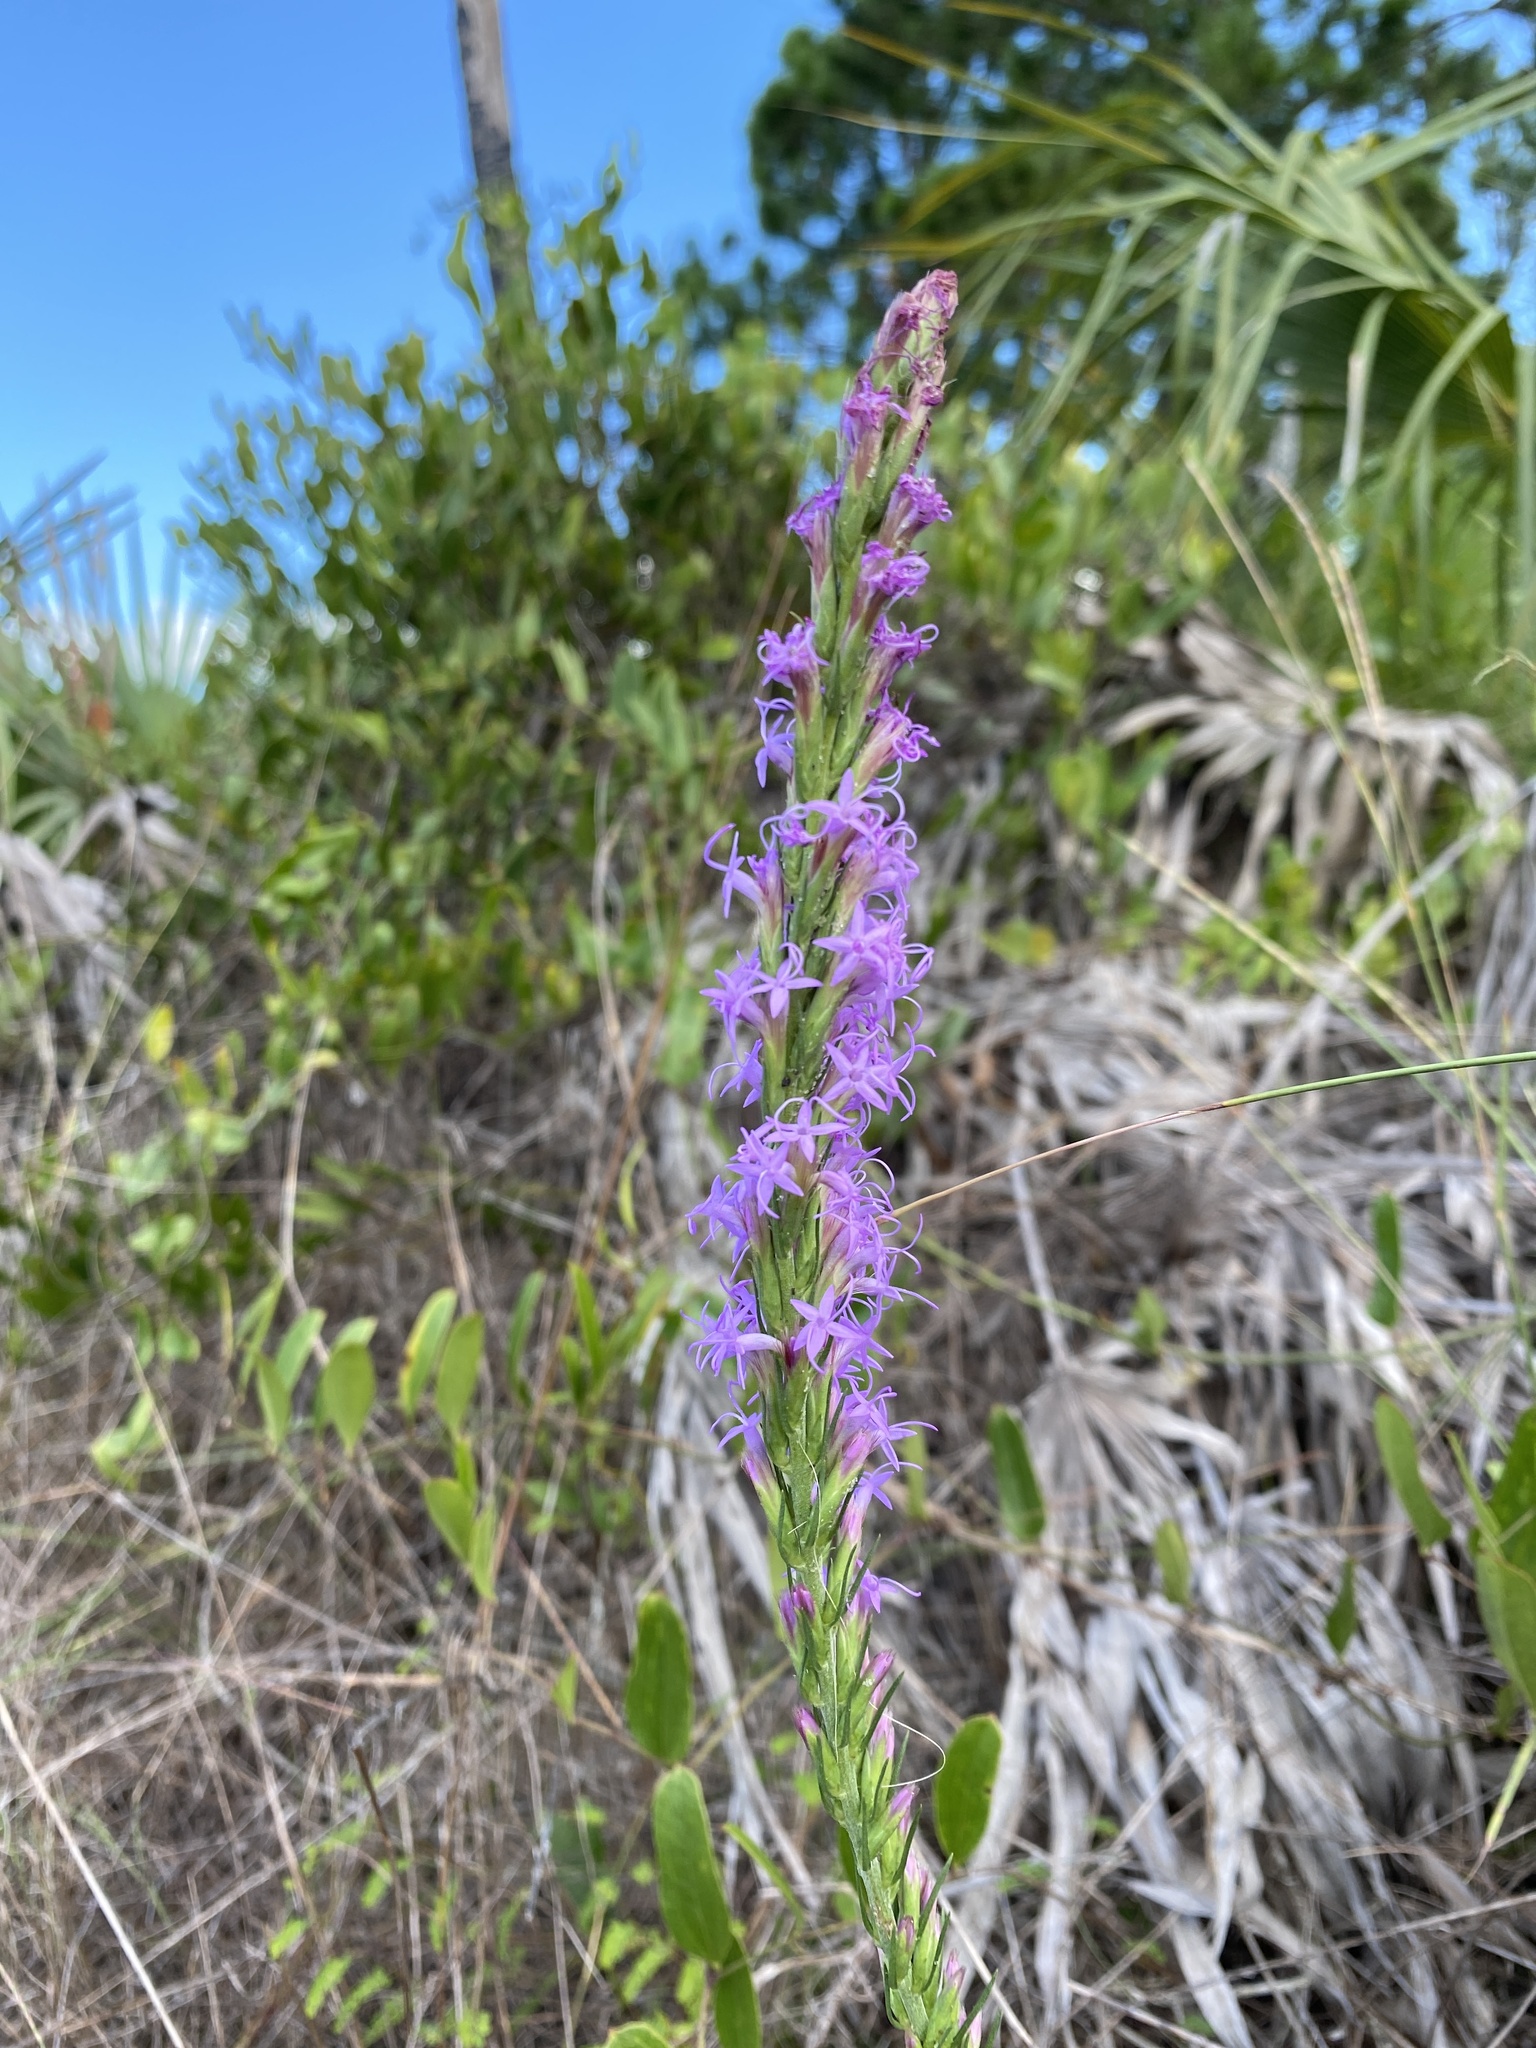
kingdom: Plantae
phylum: Tracheophyta
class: Magnoliopsida
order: Asterales
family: Asteraceae
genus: Liatris
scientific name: Liatris chapmanii
